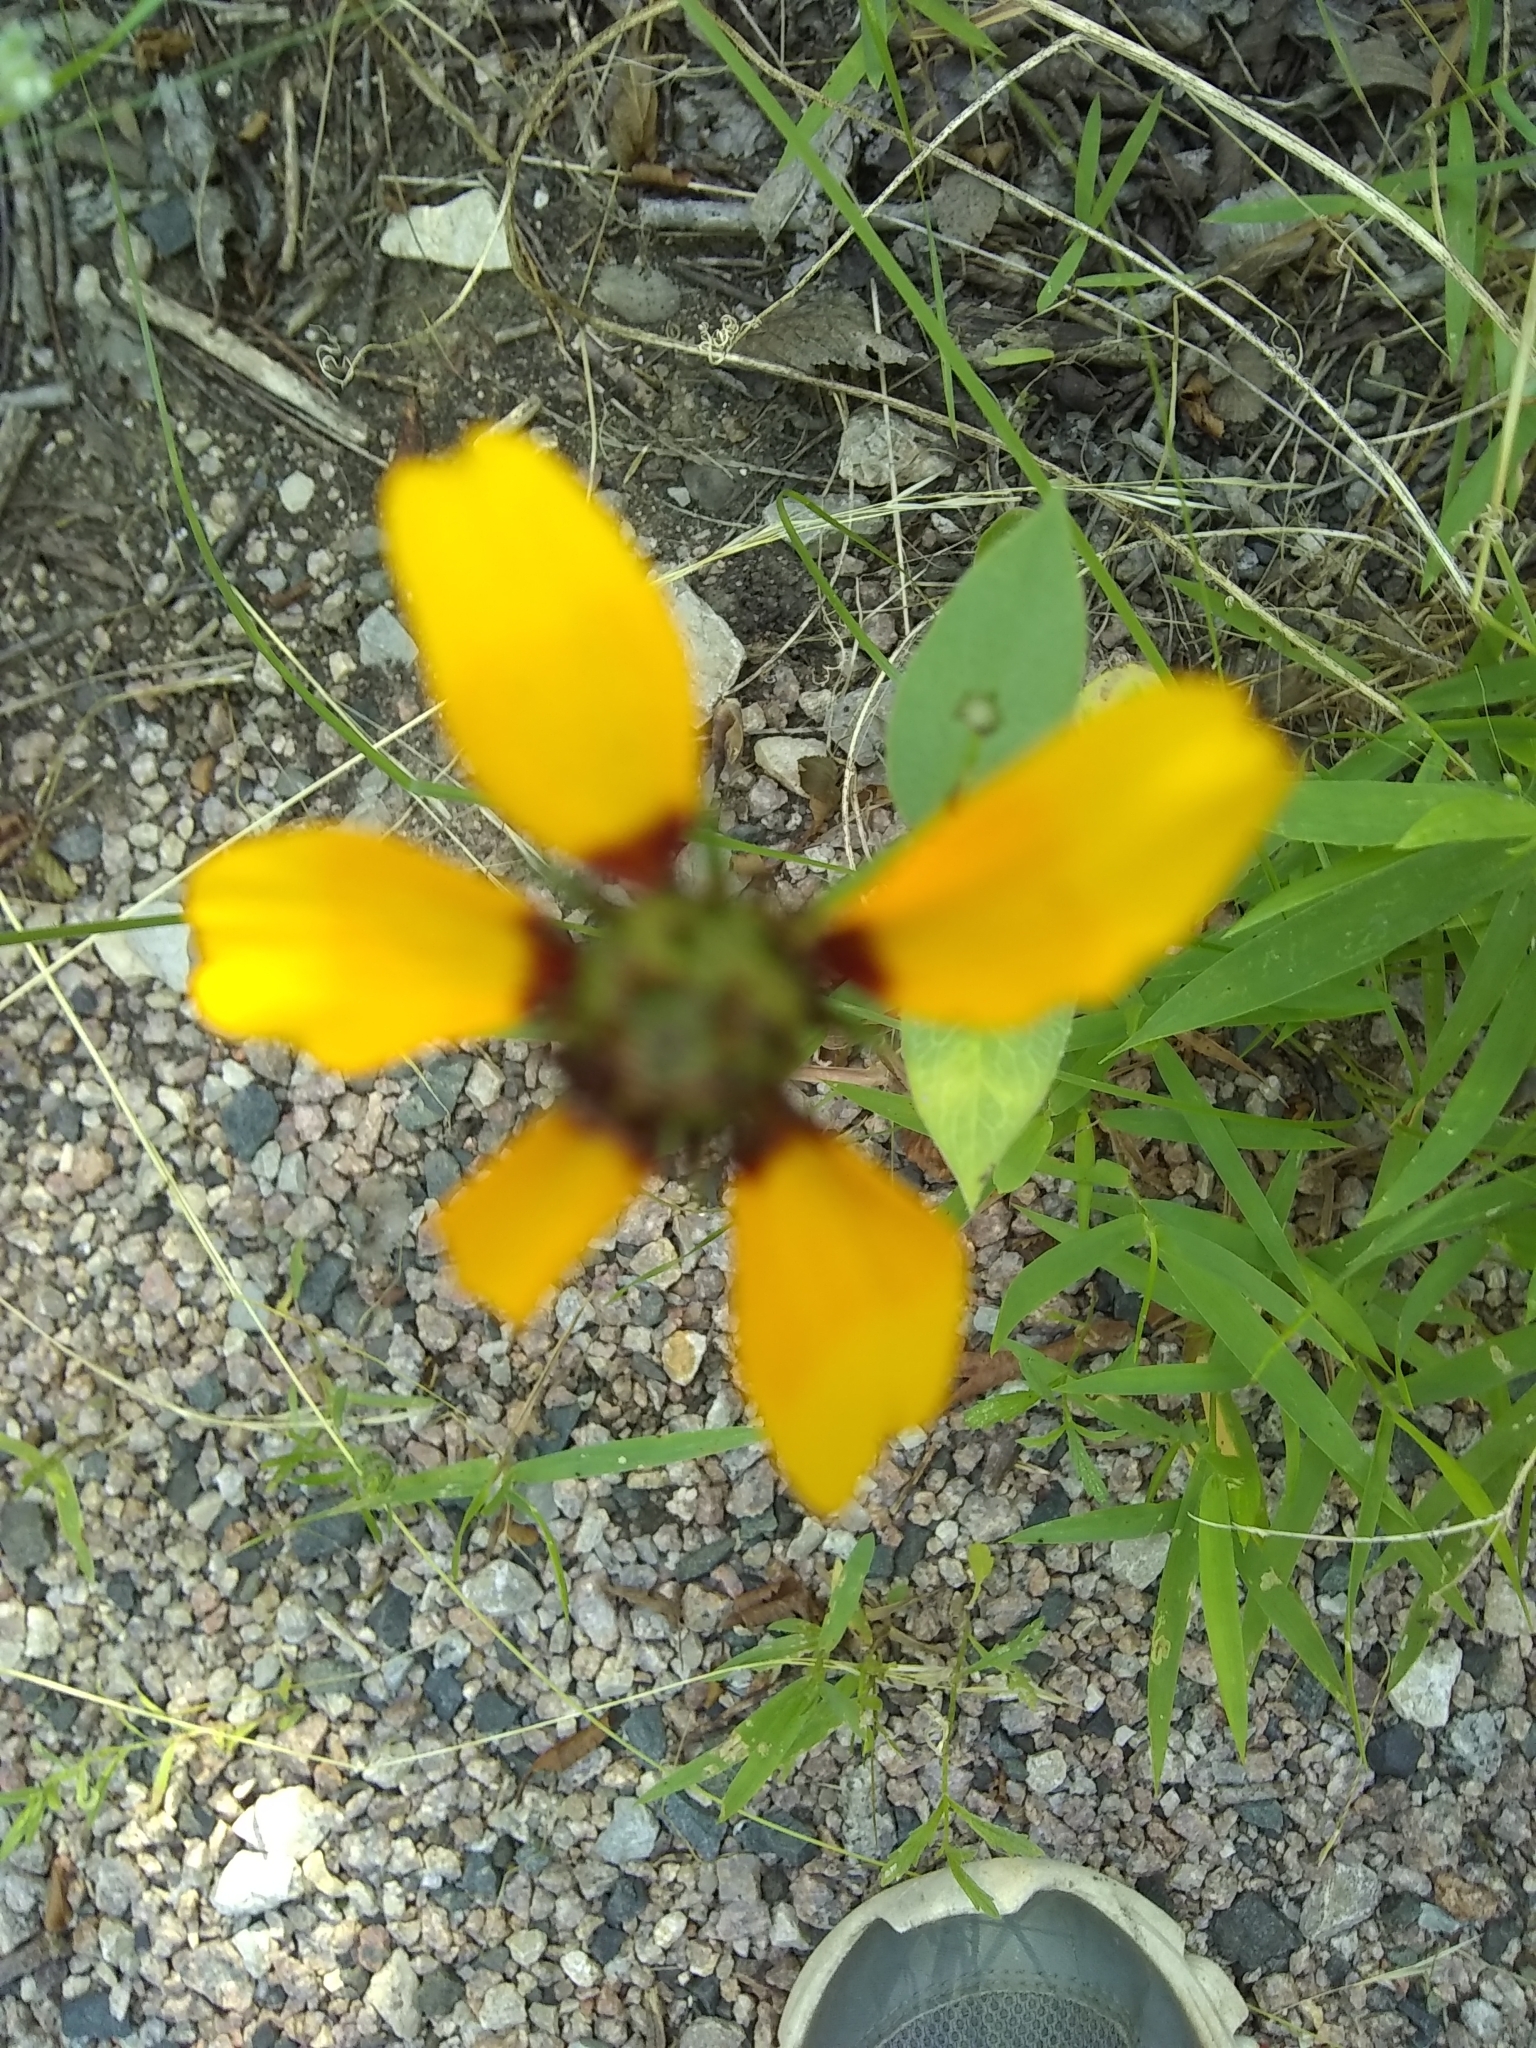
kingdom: Plantae
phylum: Tracheophyta
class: Magnoliopsida
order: Asterales
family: Asteraceae
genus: Rudbeckia
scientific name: Rudbeckia amplexicaulis
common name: Clasping-leaf coneflower
